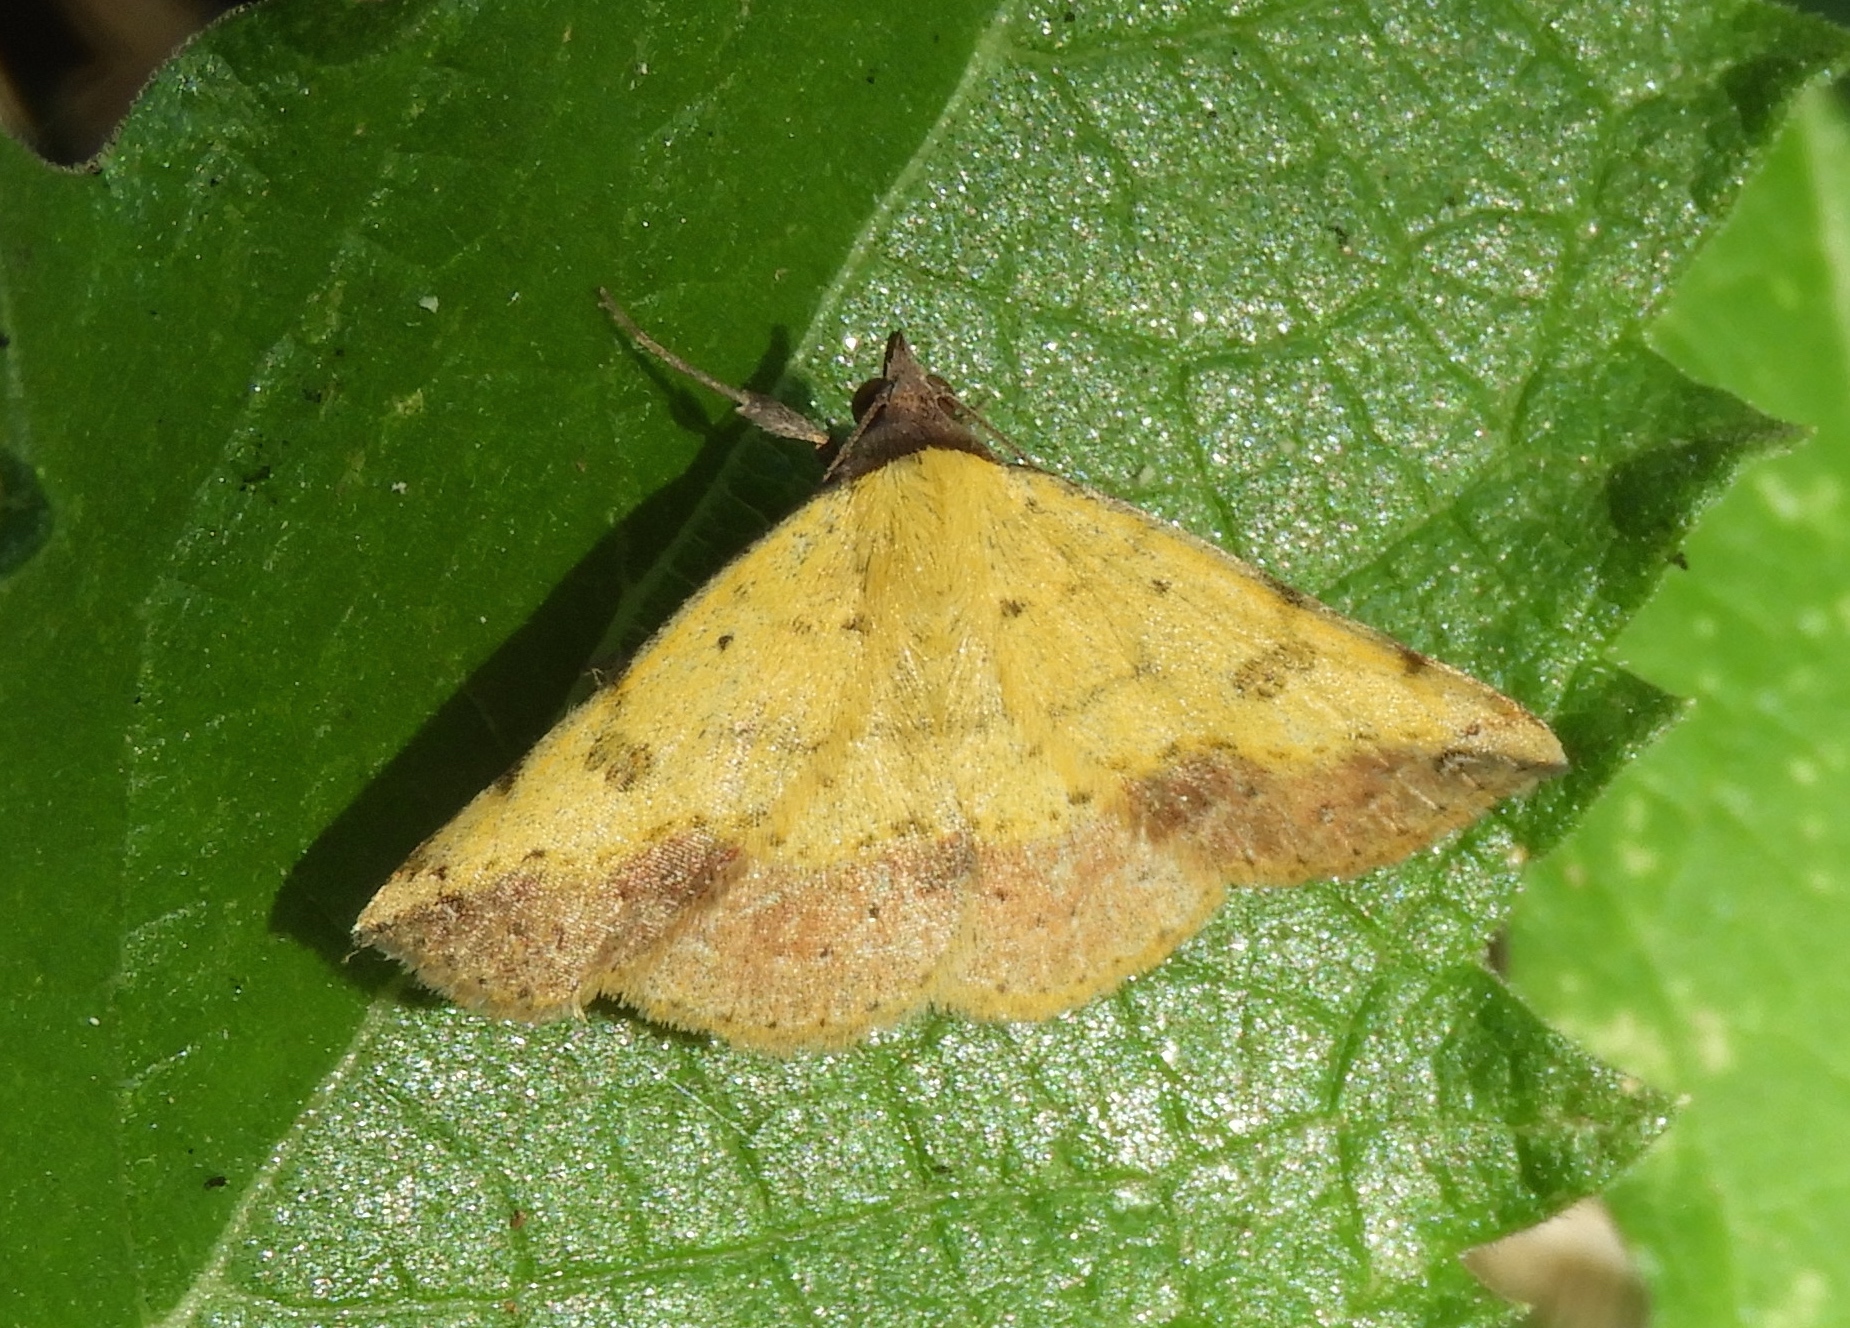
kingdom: Animalia
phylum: Arthropoda
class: Insecta
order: Lepidoptera
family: Erebidae
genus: Hemeroplanis
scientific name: Hemeroplanis scopulepes
